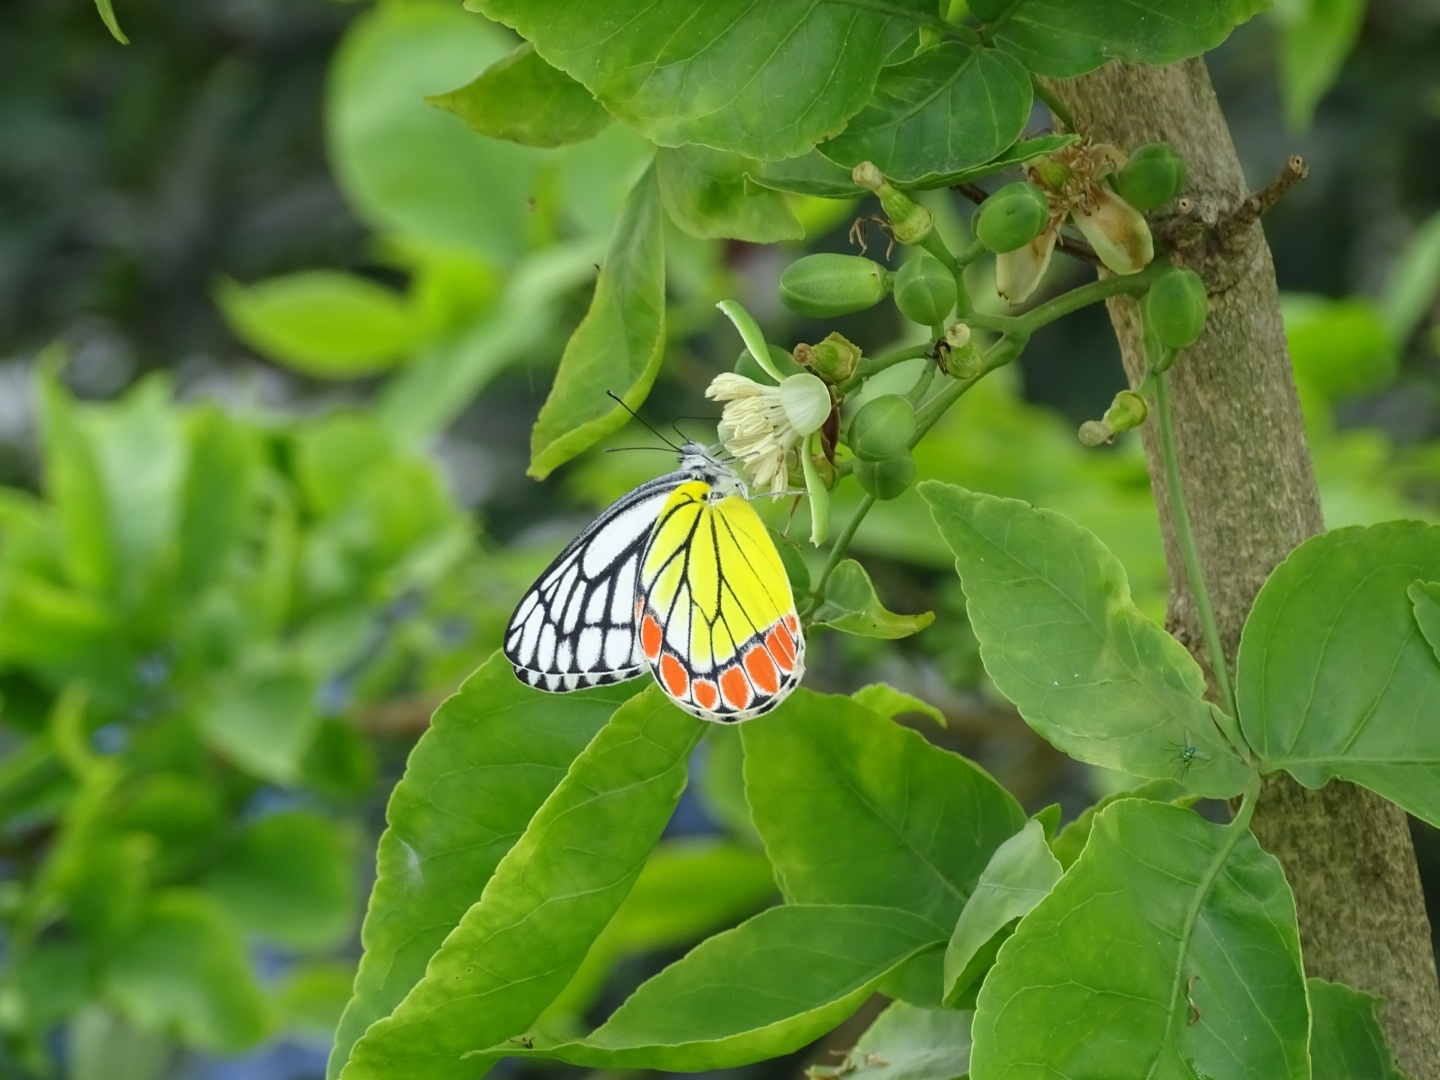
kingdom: Animalia
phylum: Arthropoda
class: Insecta
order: Lepidoptera
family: Pieridae
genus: Delias
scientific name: Delias eucharis
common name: Common jezebel
